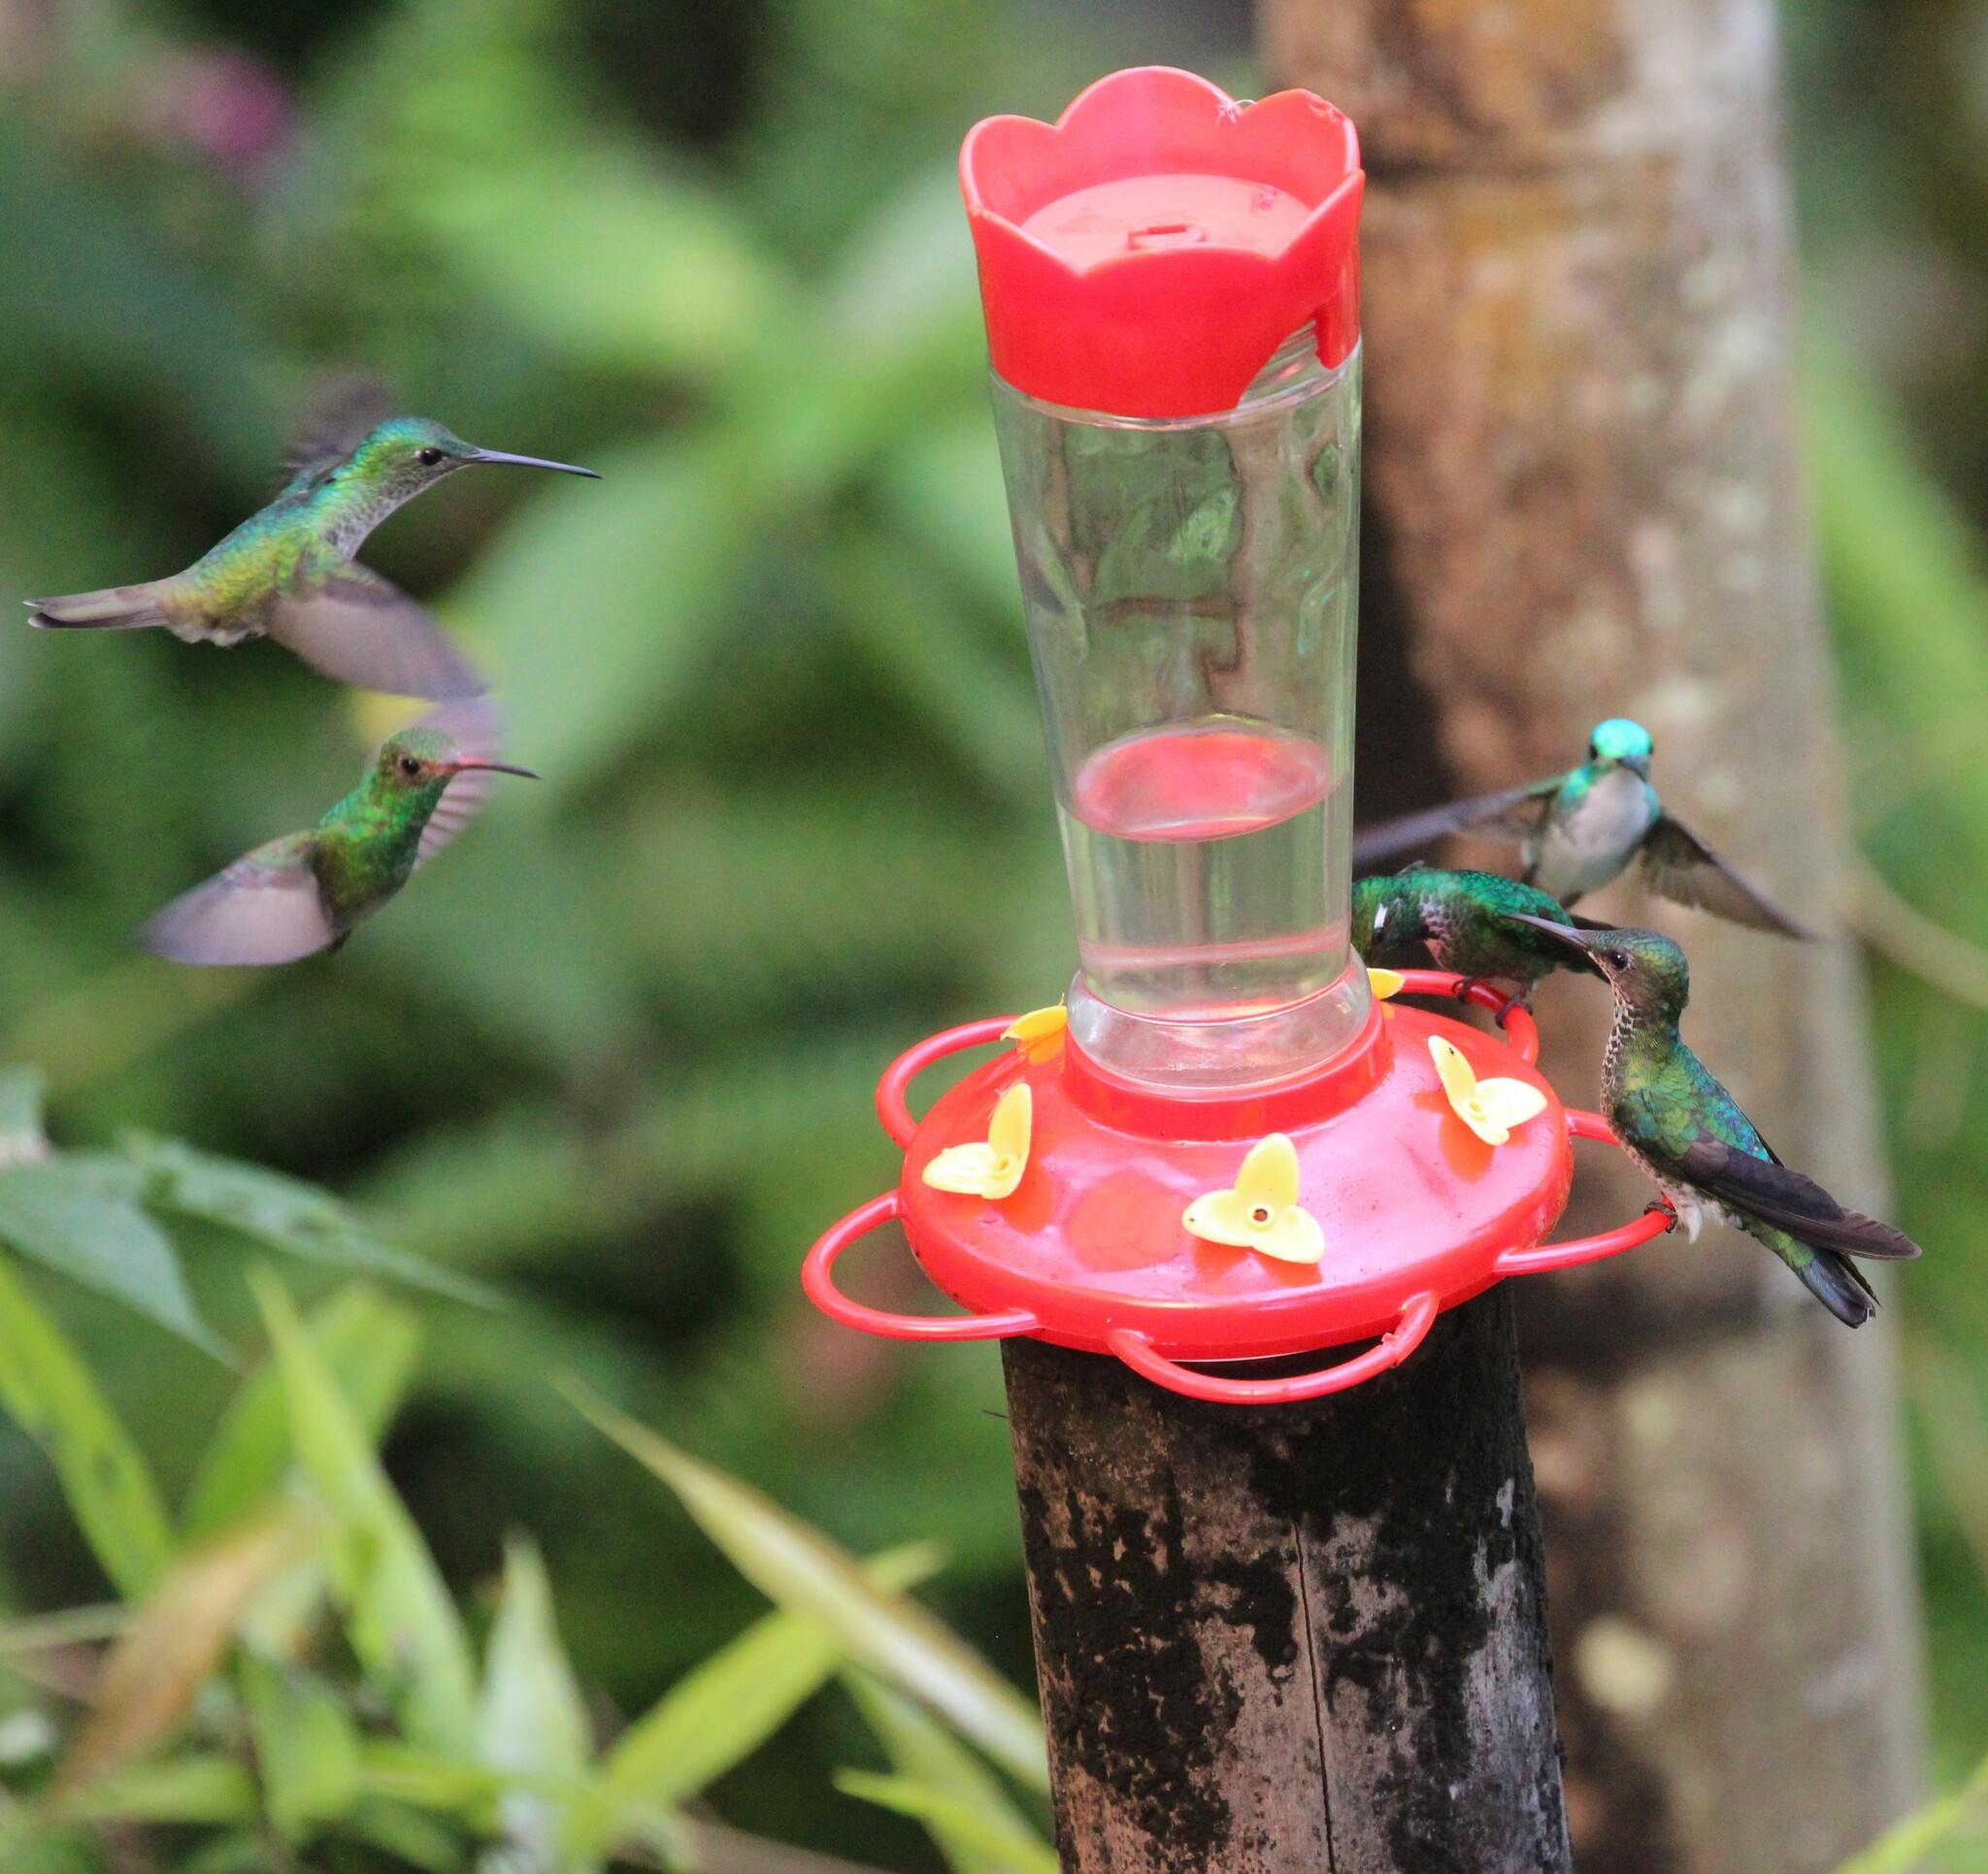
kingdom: Animalia
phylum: Chordata
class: Aves
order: Apodiformes
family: Trochilidae
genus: Amazilia
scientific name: Amazilia tzacatl
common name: Rufous-tailed hummingbird
